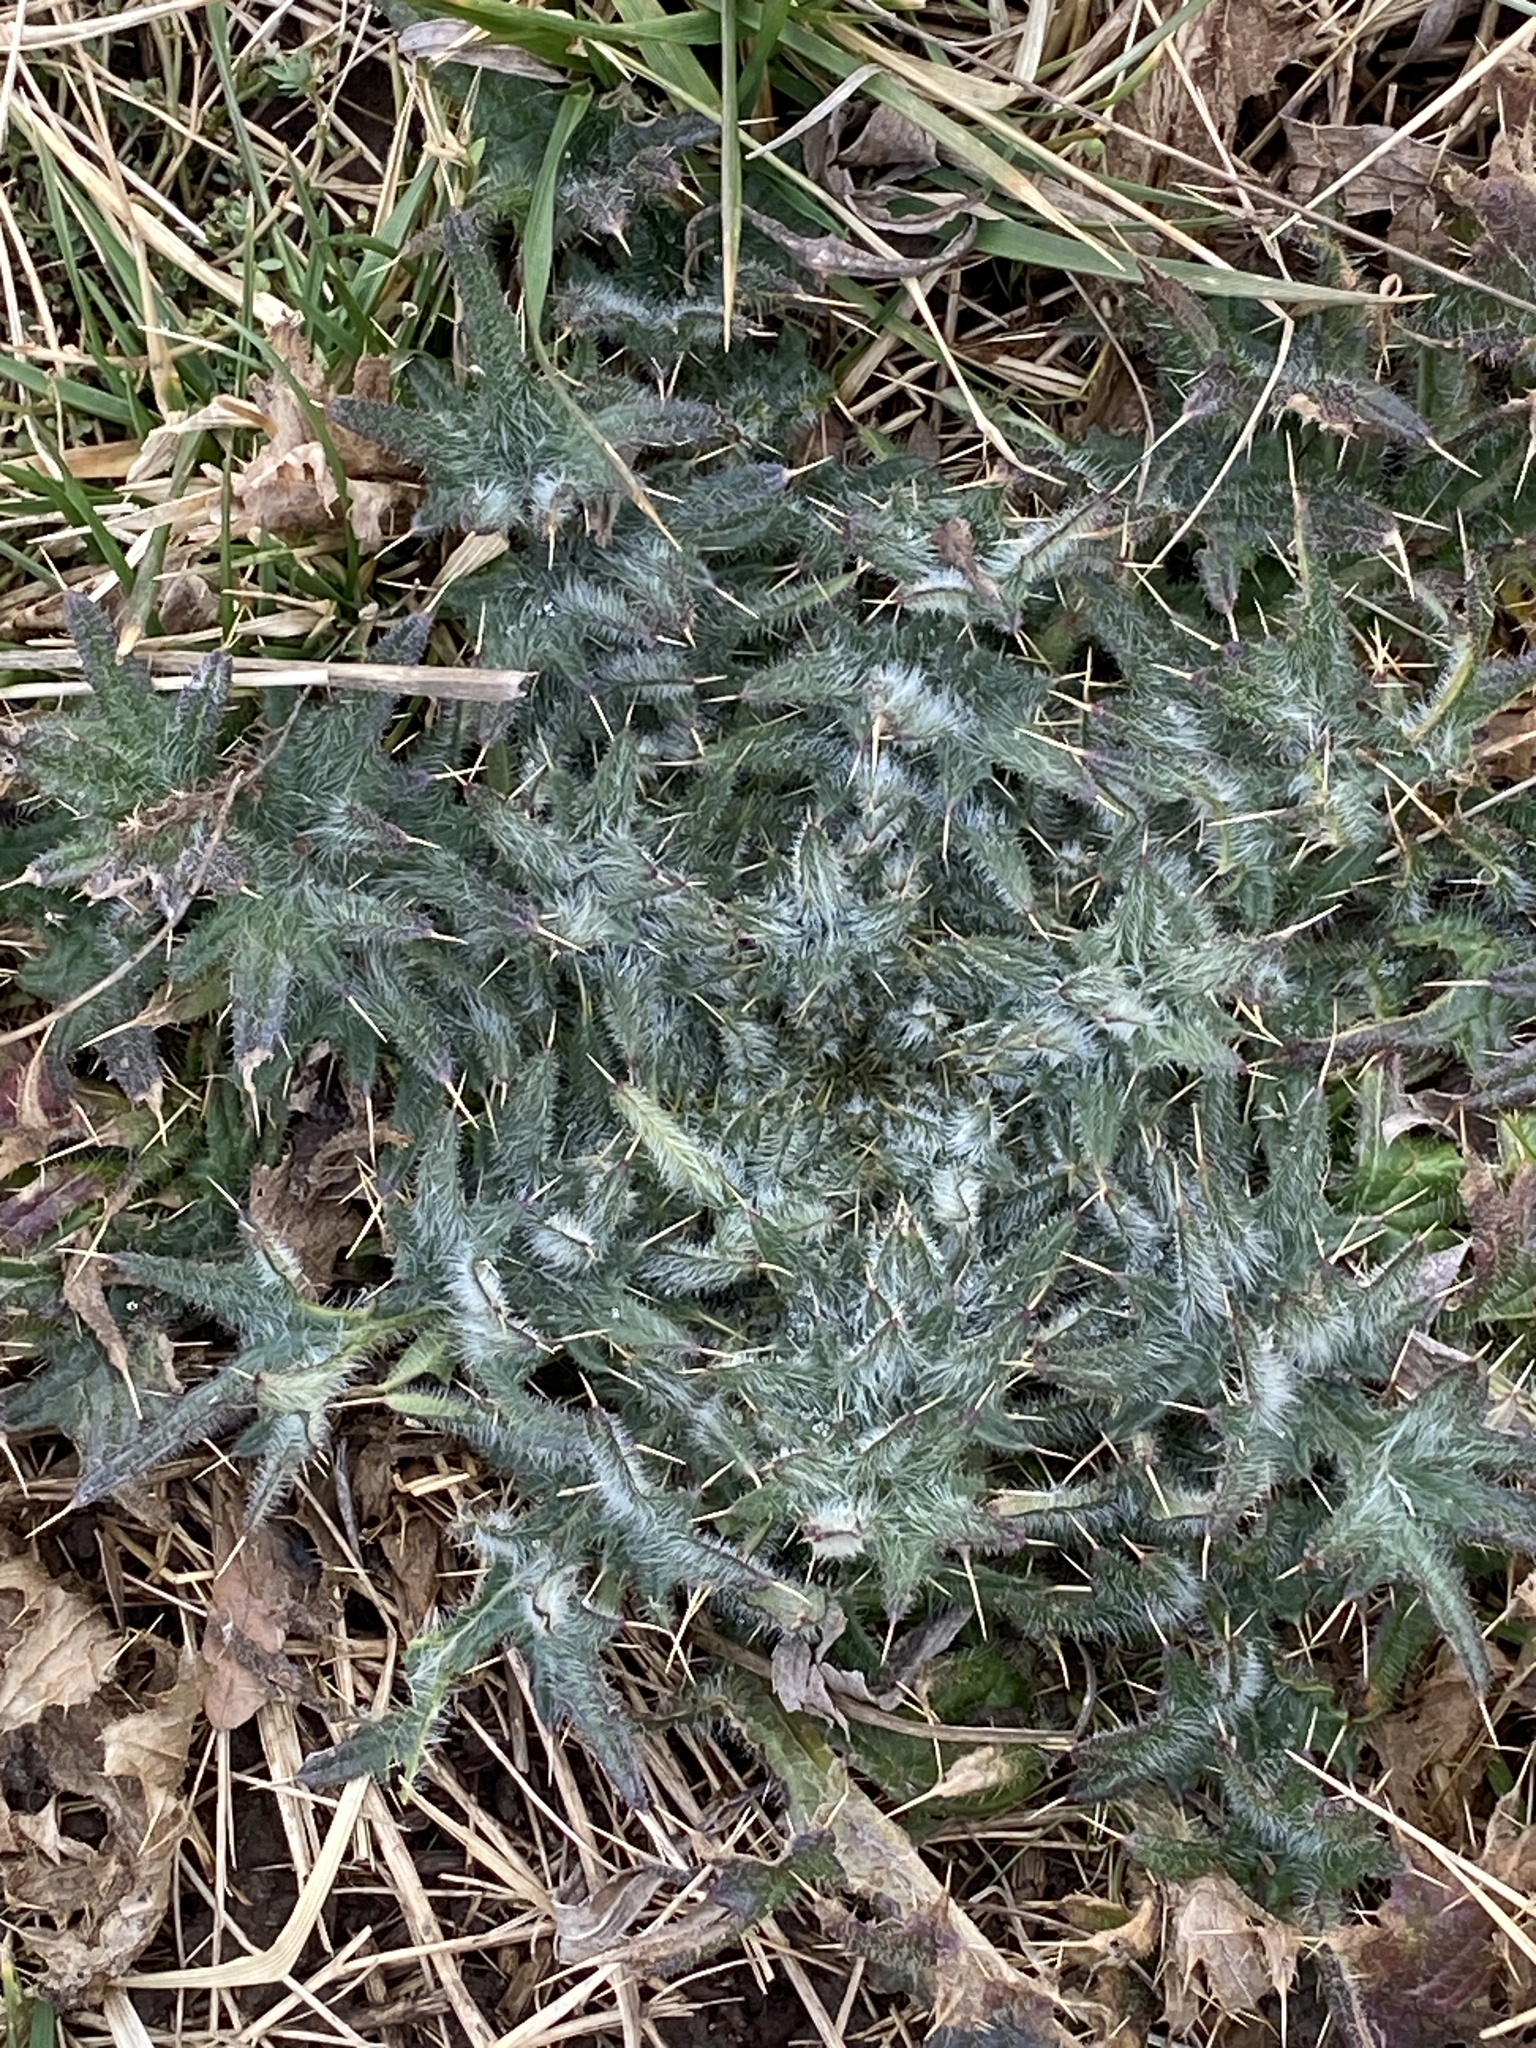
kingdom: Plantae
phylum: Tracheophyta
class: Magnoliopsida
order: Asterales
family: Asteraceae
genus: Cirsium
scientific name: Cirsium vulgare
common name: Bull thistle
